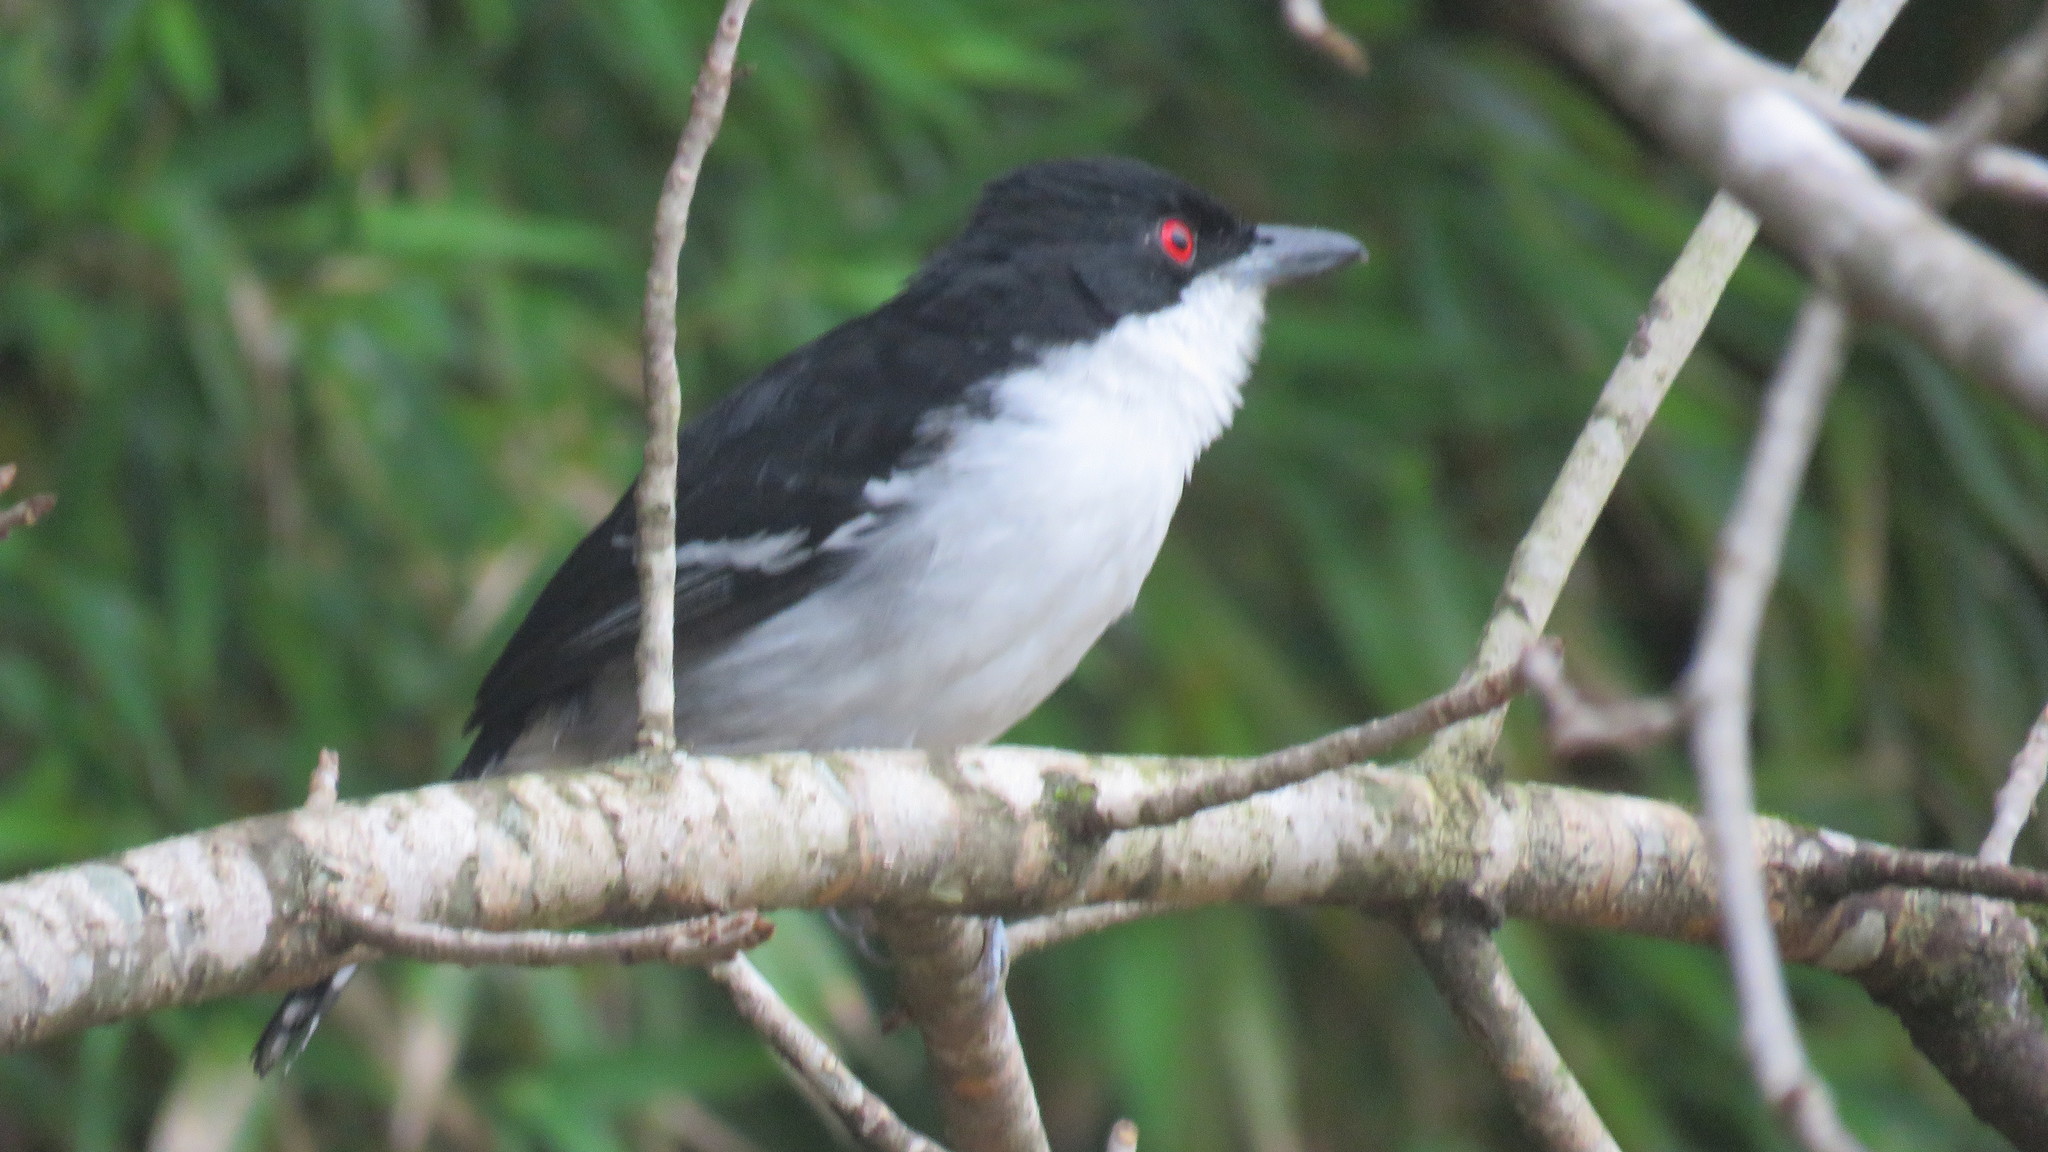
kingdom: Animalia
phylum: Chordata
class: Aves
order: Passeriformes
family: Thamnophilidae
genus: Taraba
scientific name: Taraba major
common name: Great antshrike
